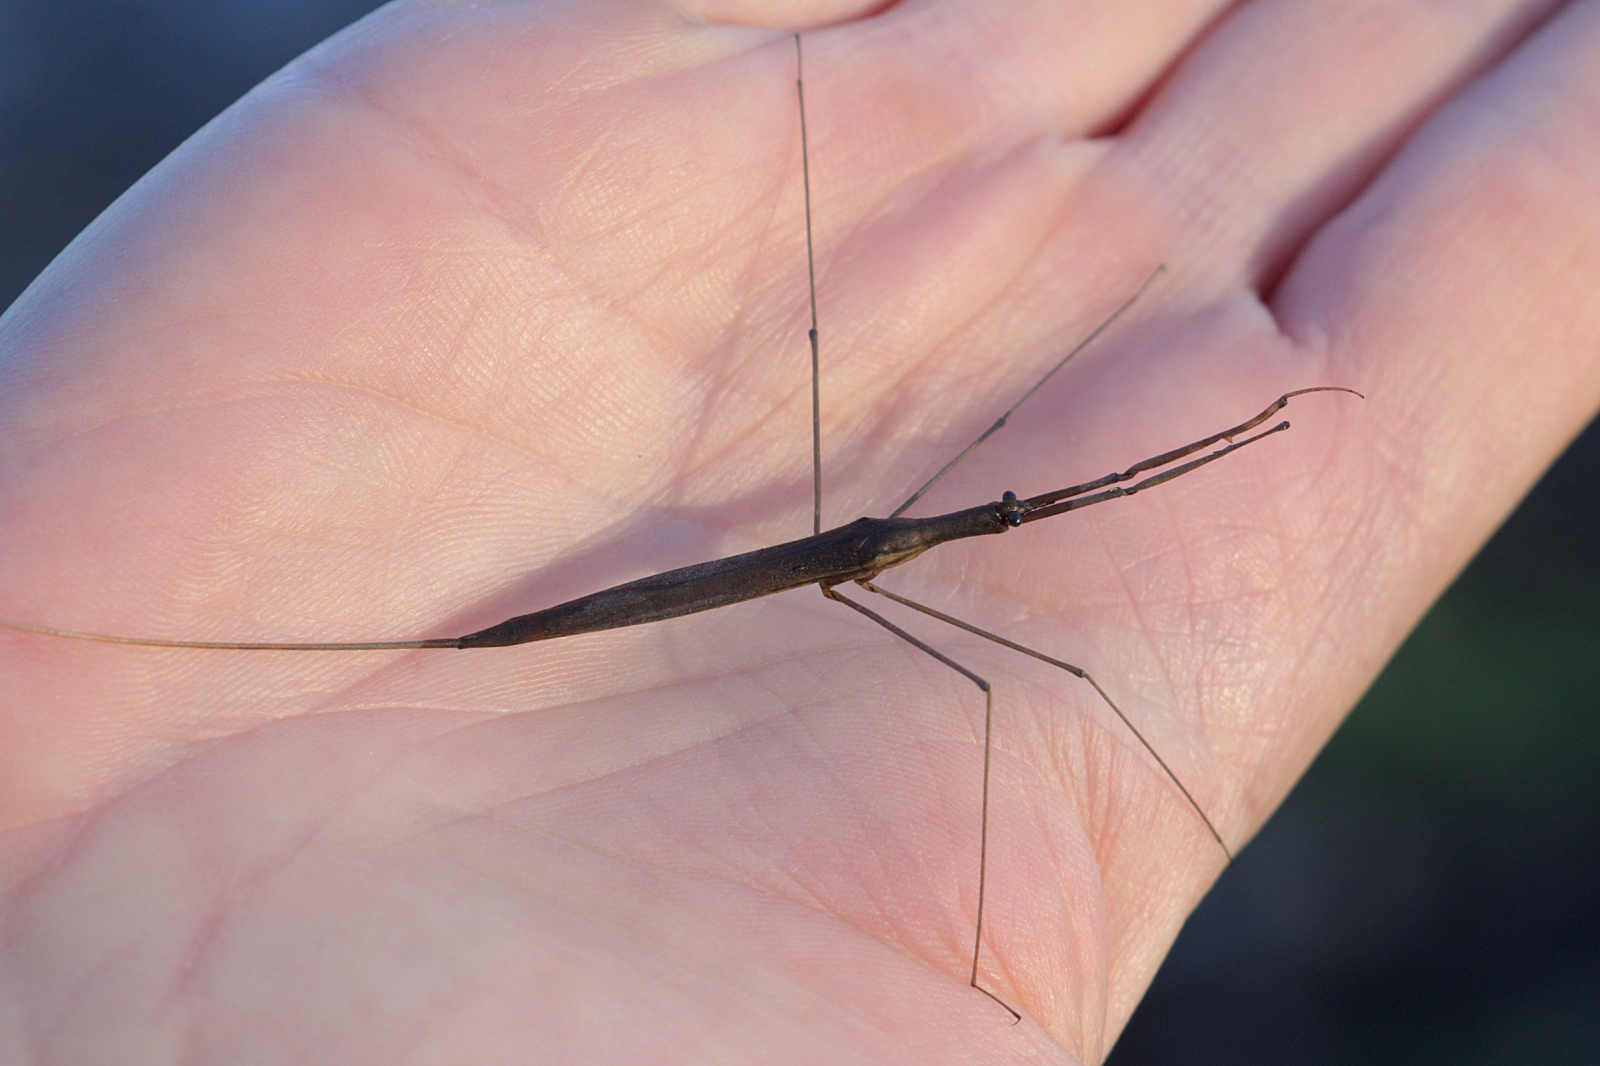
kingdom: Animalia
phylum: Arthropoda
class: Insecta
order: Hemiptera
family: Nepidae
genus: Ranatra
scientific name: Ranatra linearis
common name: Water stick insect
